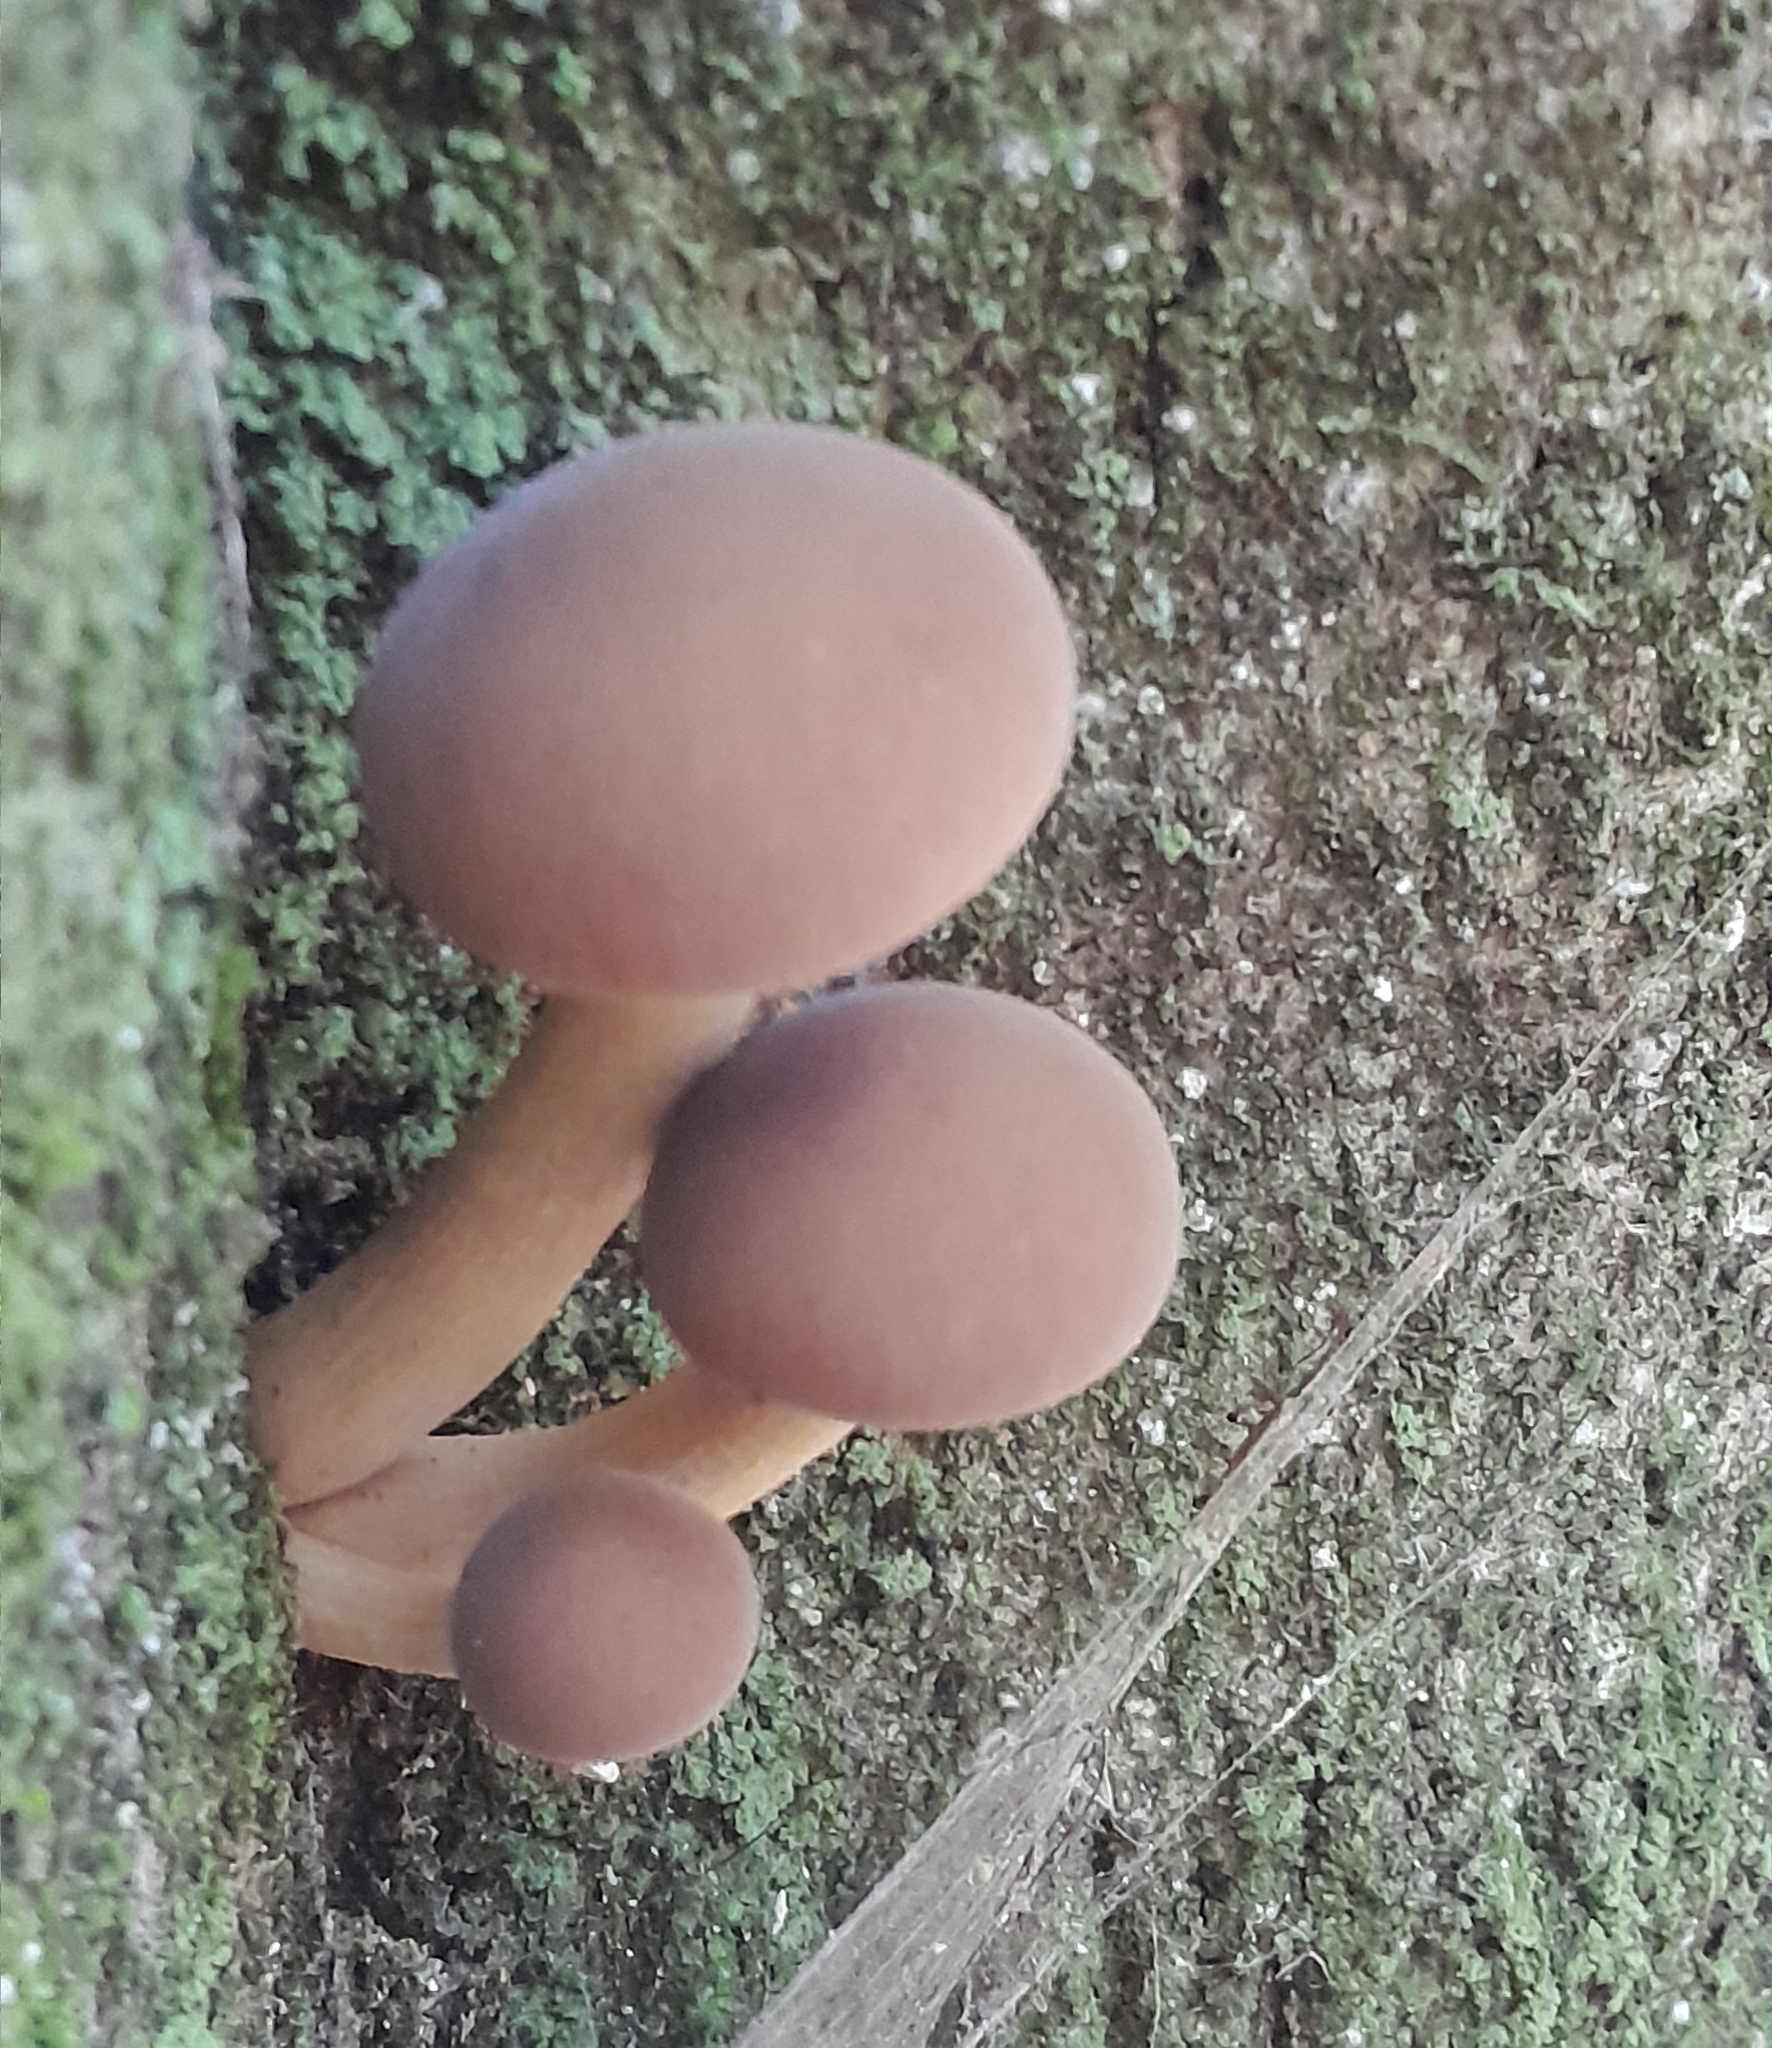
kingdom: Fungi
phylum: Basidiomycota
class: Agaricomycetes
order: Agaricales
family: Tubariaceae
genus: Cyclocybe
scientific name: Cyclocybe parasitica
